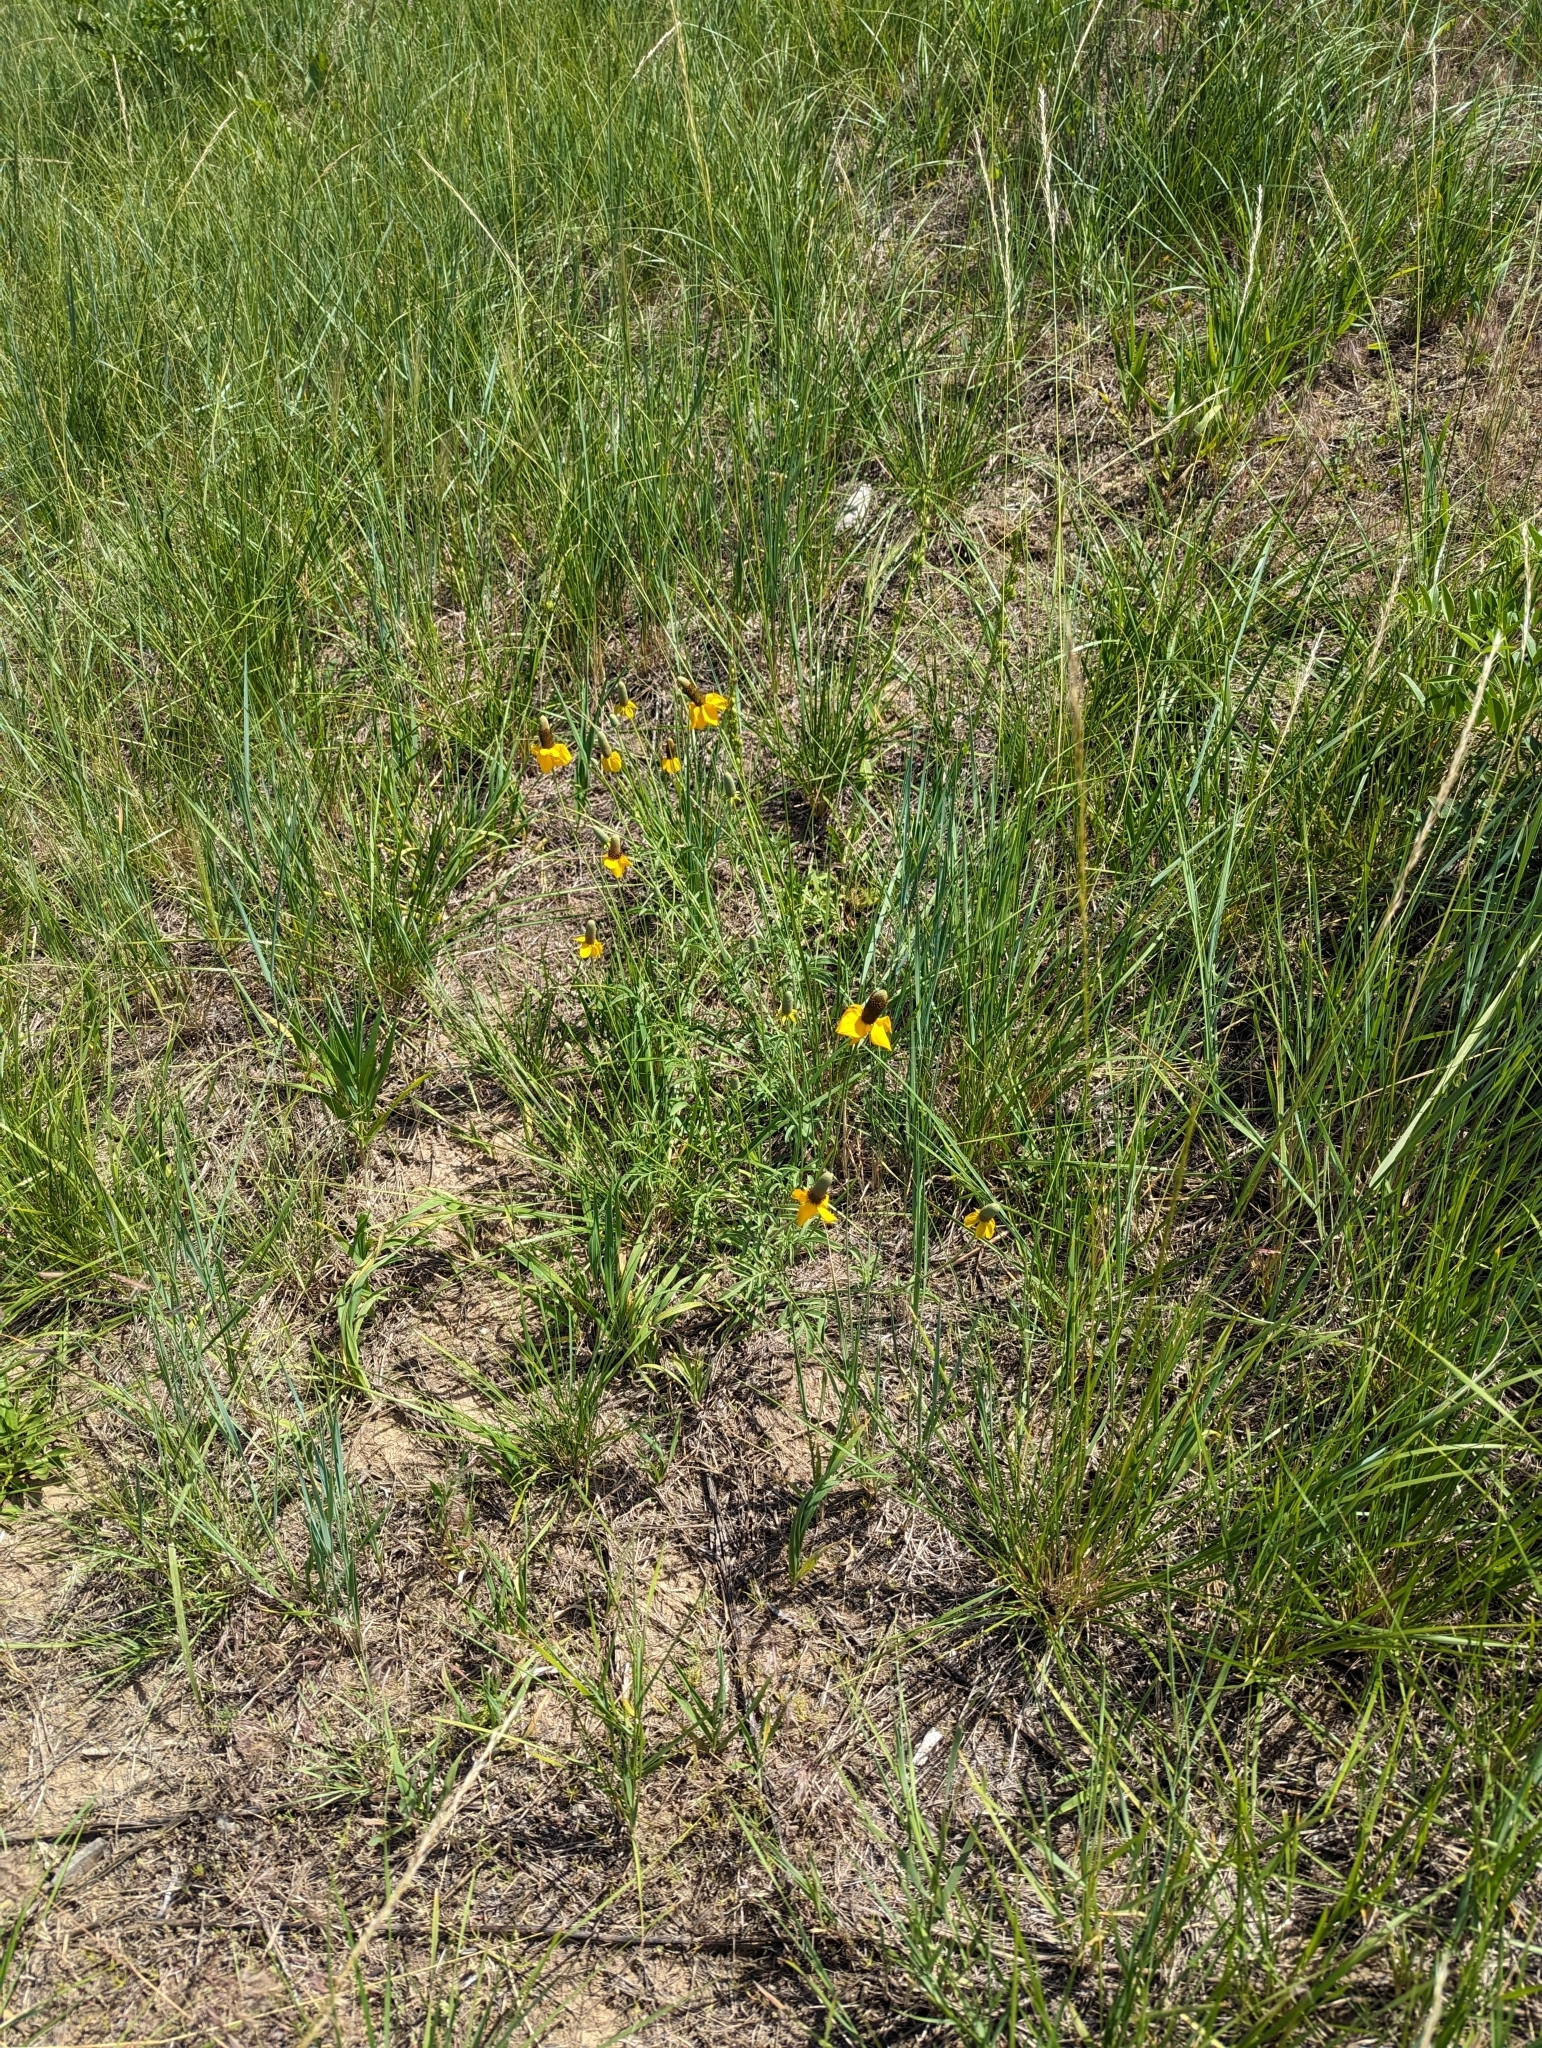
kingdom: Plantae
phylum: Tracheophyta
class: Magnoliopsida
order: Asterales
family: Asteraceae
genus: Ratibida
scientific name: Ratibida columnifera
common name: Prairie coneflower
